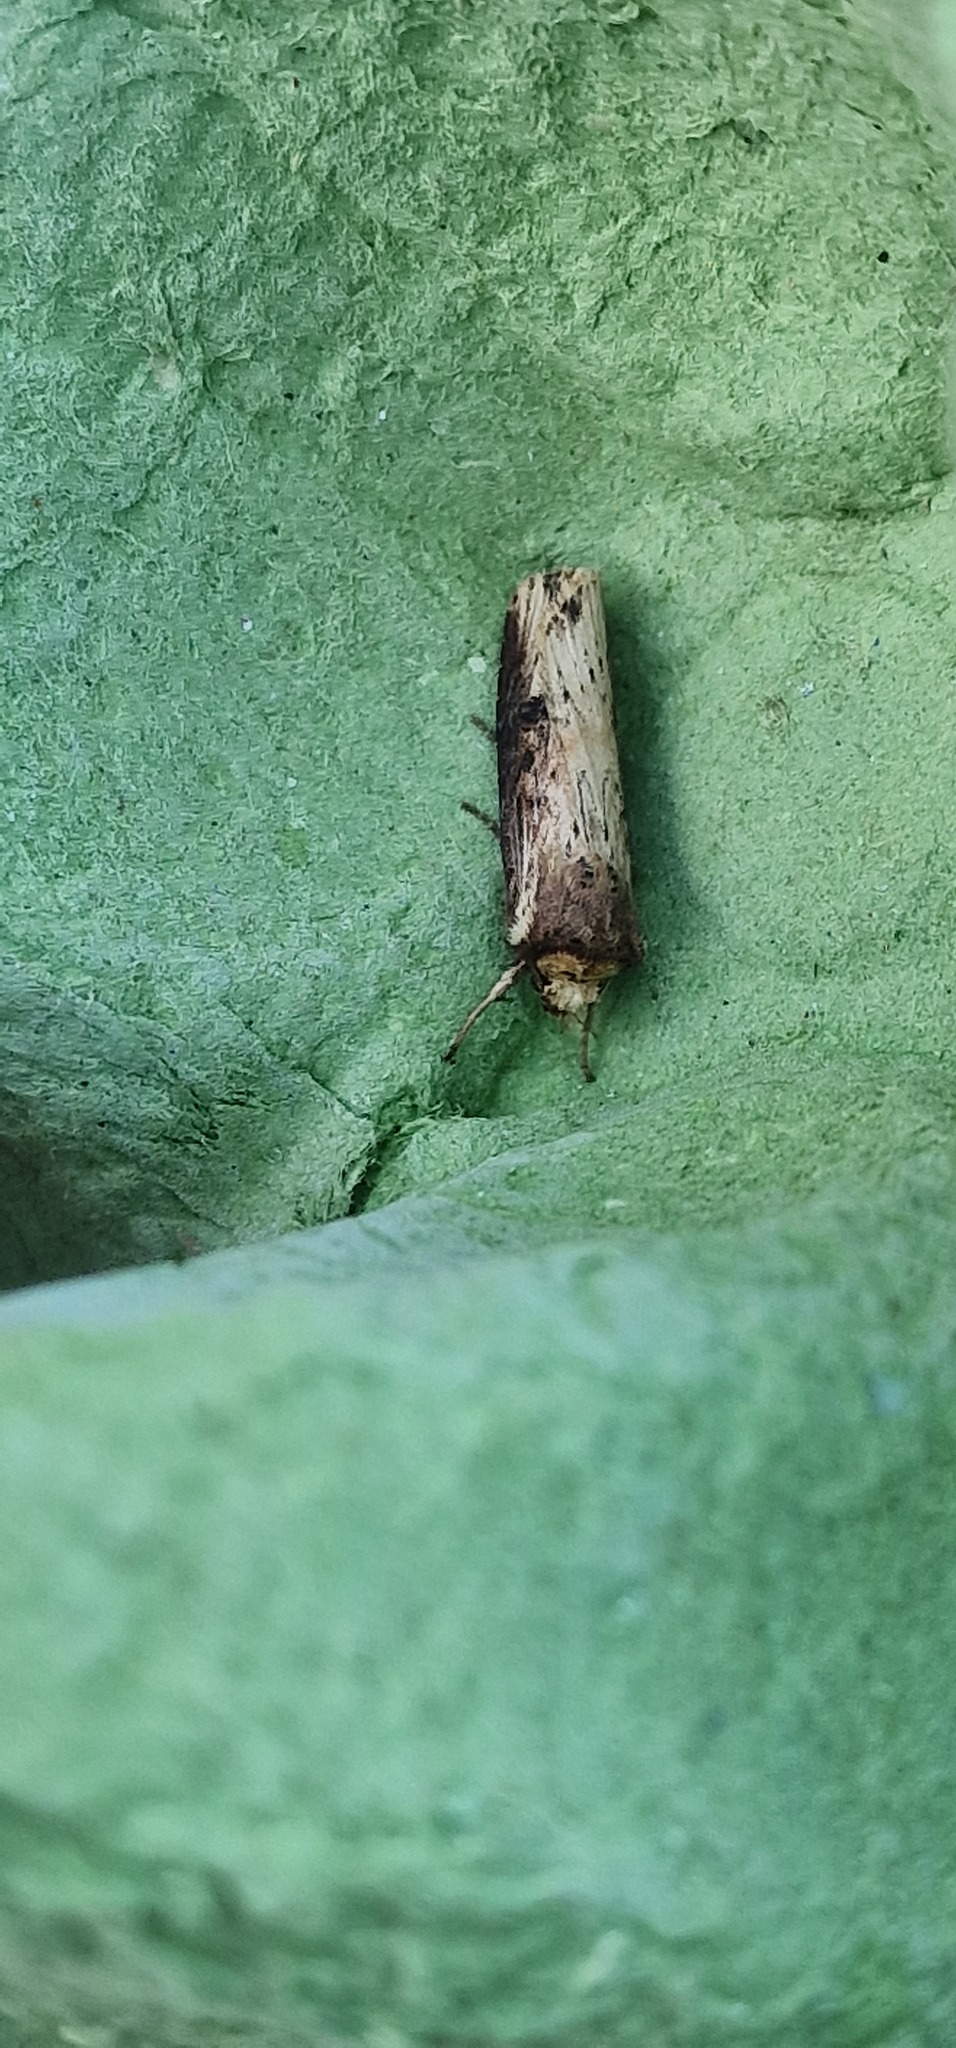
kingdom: Animalia
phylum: Arthropoda
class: Insecta
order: Lepidoptera
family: Noctuidae
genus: Axylia
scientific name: Axylia putris
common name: Flame
